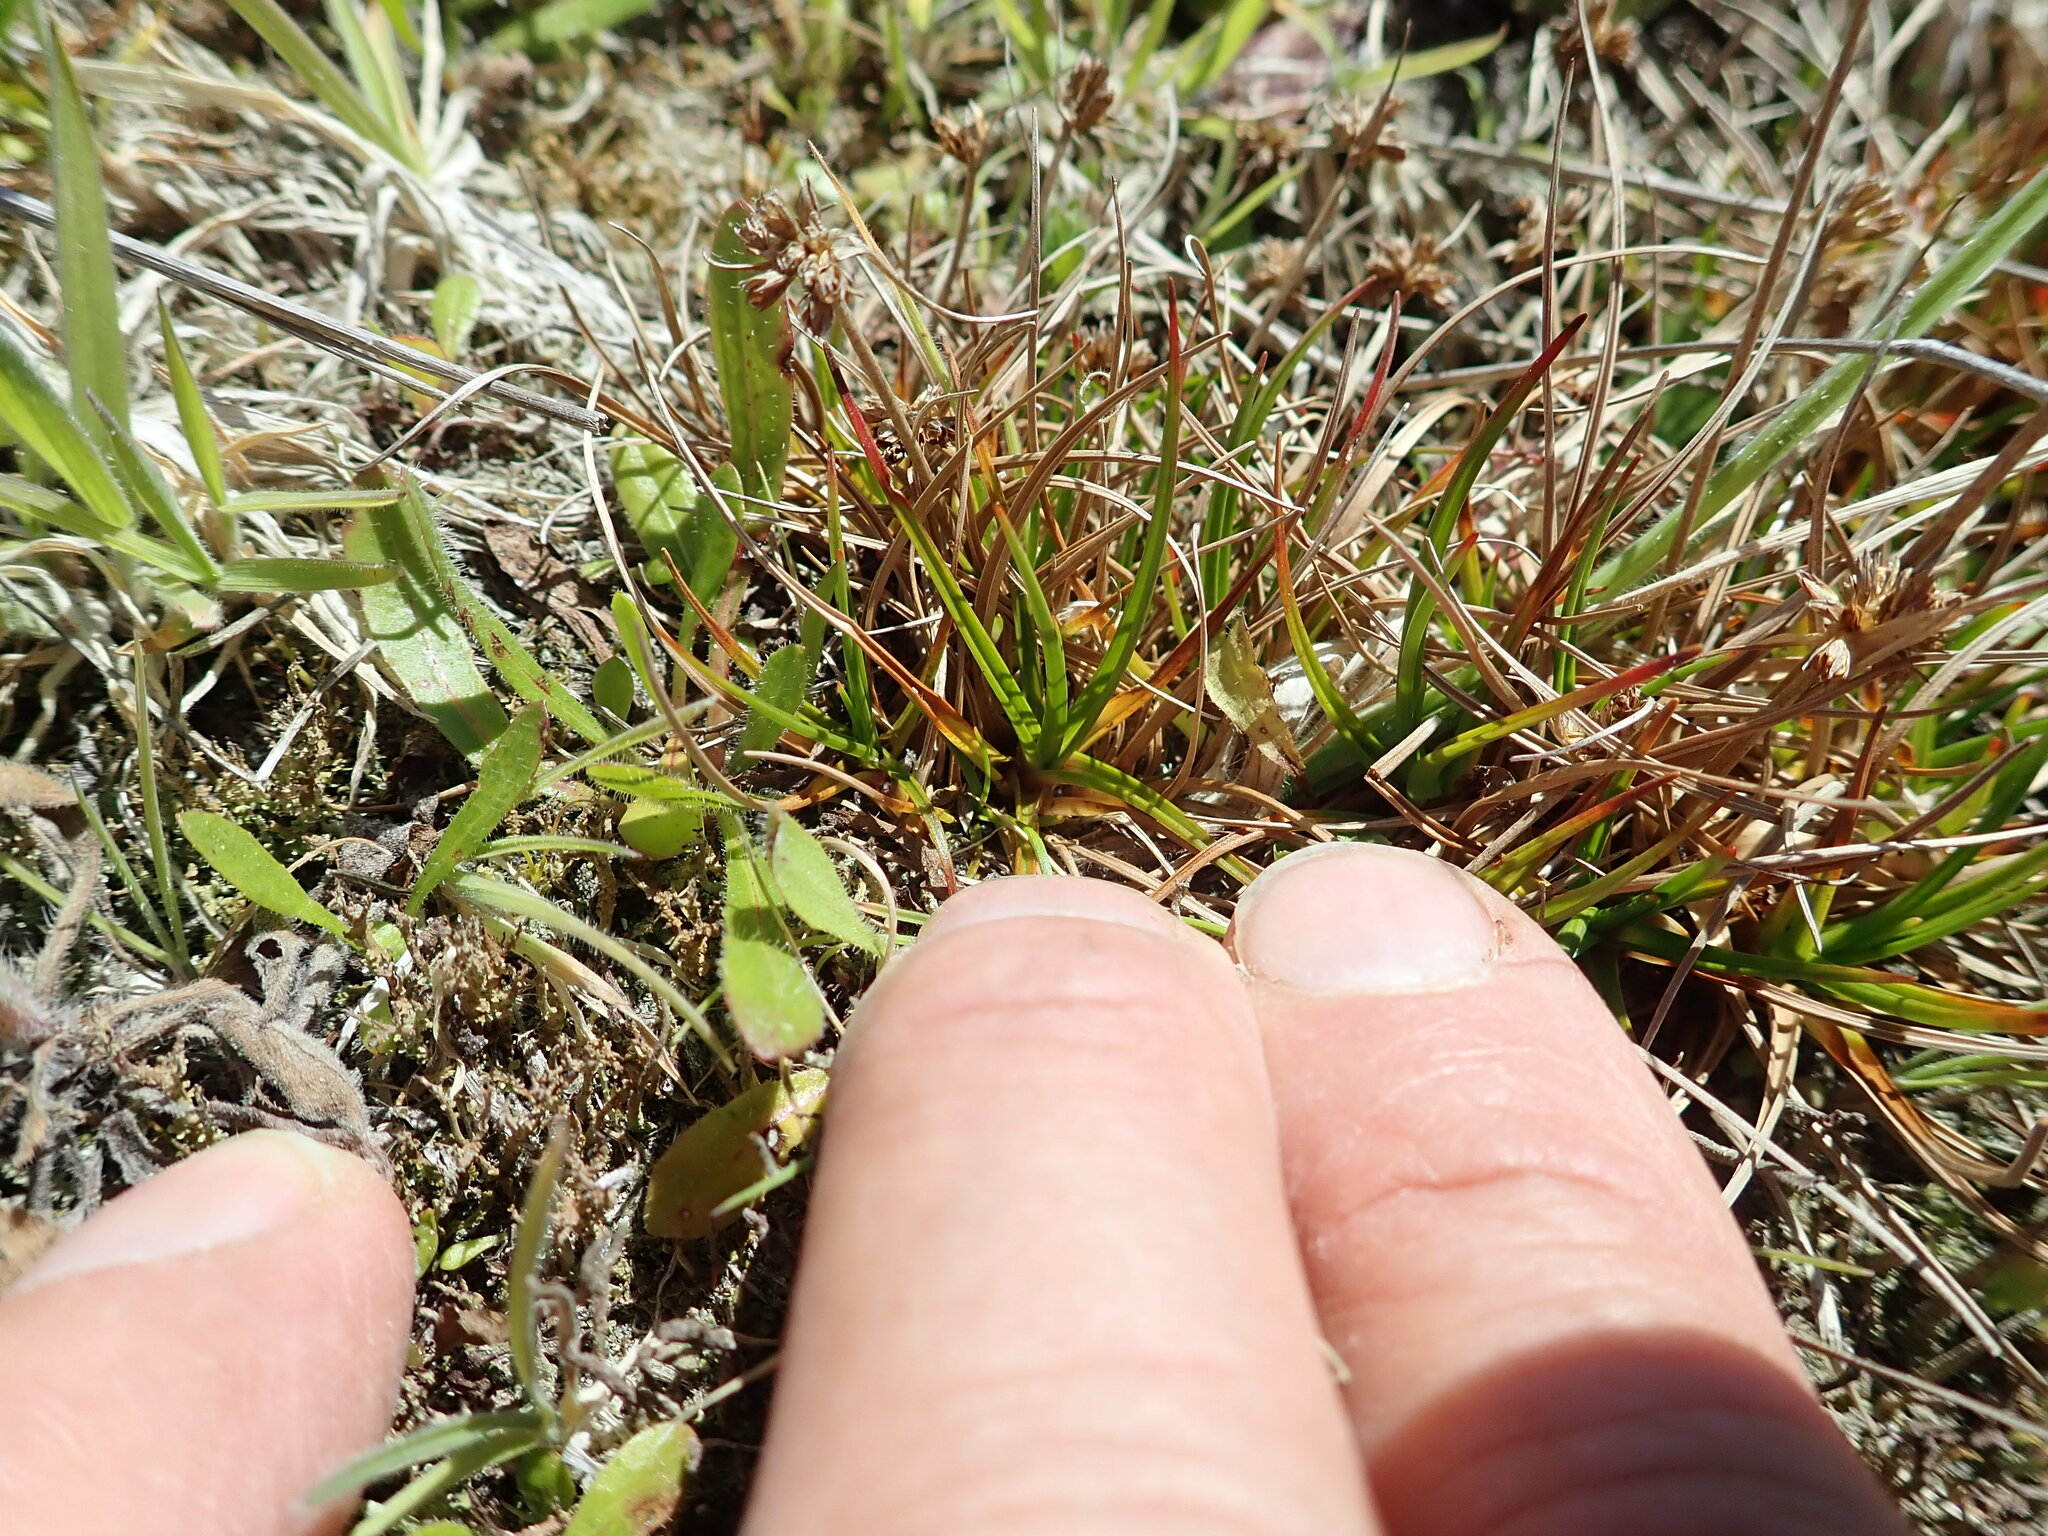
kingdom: Plantae
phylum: Tracheophyta
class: Liliopsida
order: Poales
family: Juncaceae
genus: Juncus
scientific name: Juncus caespiticius
